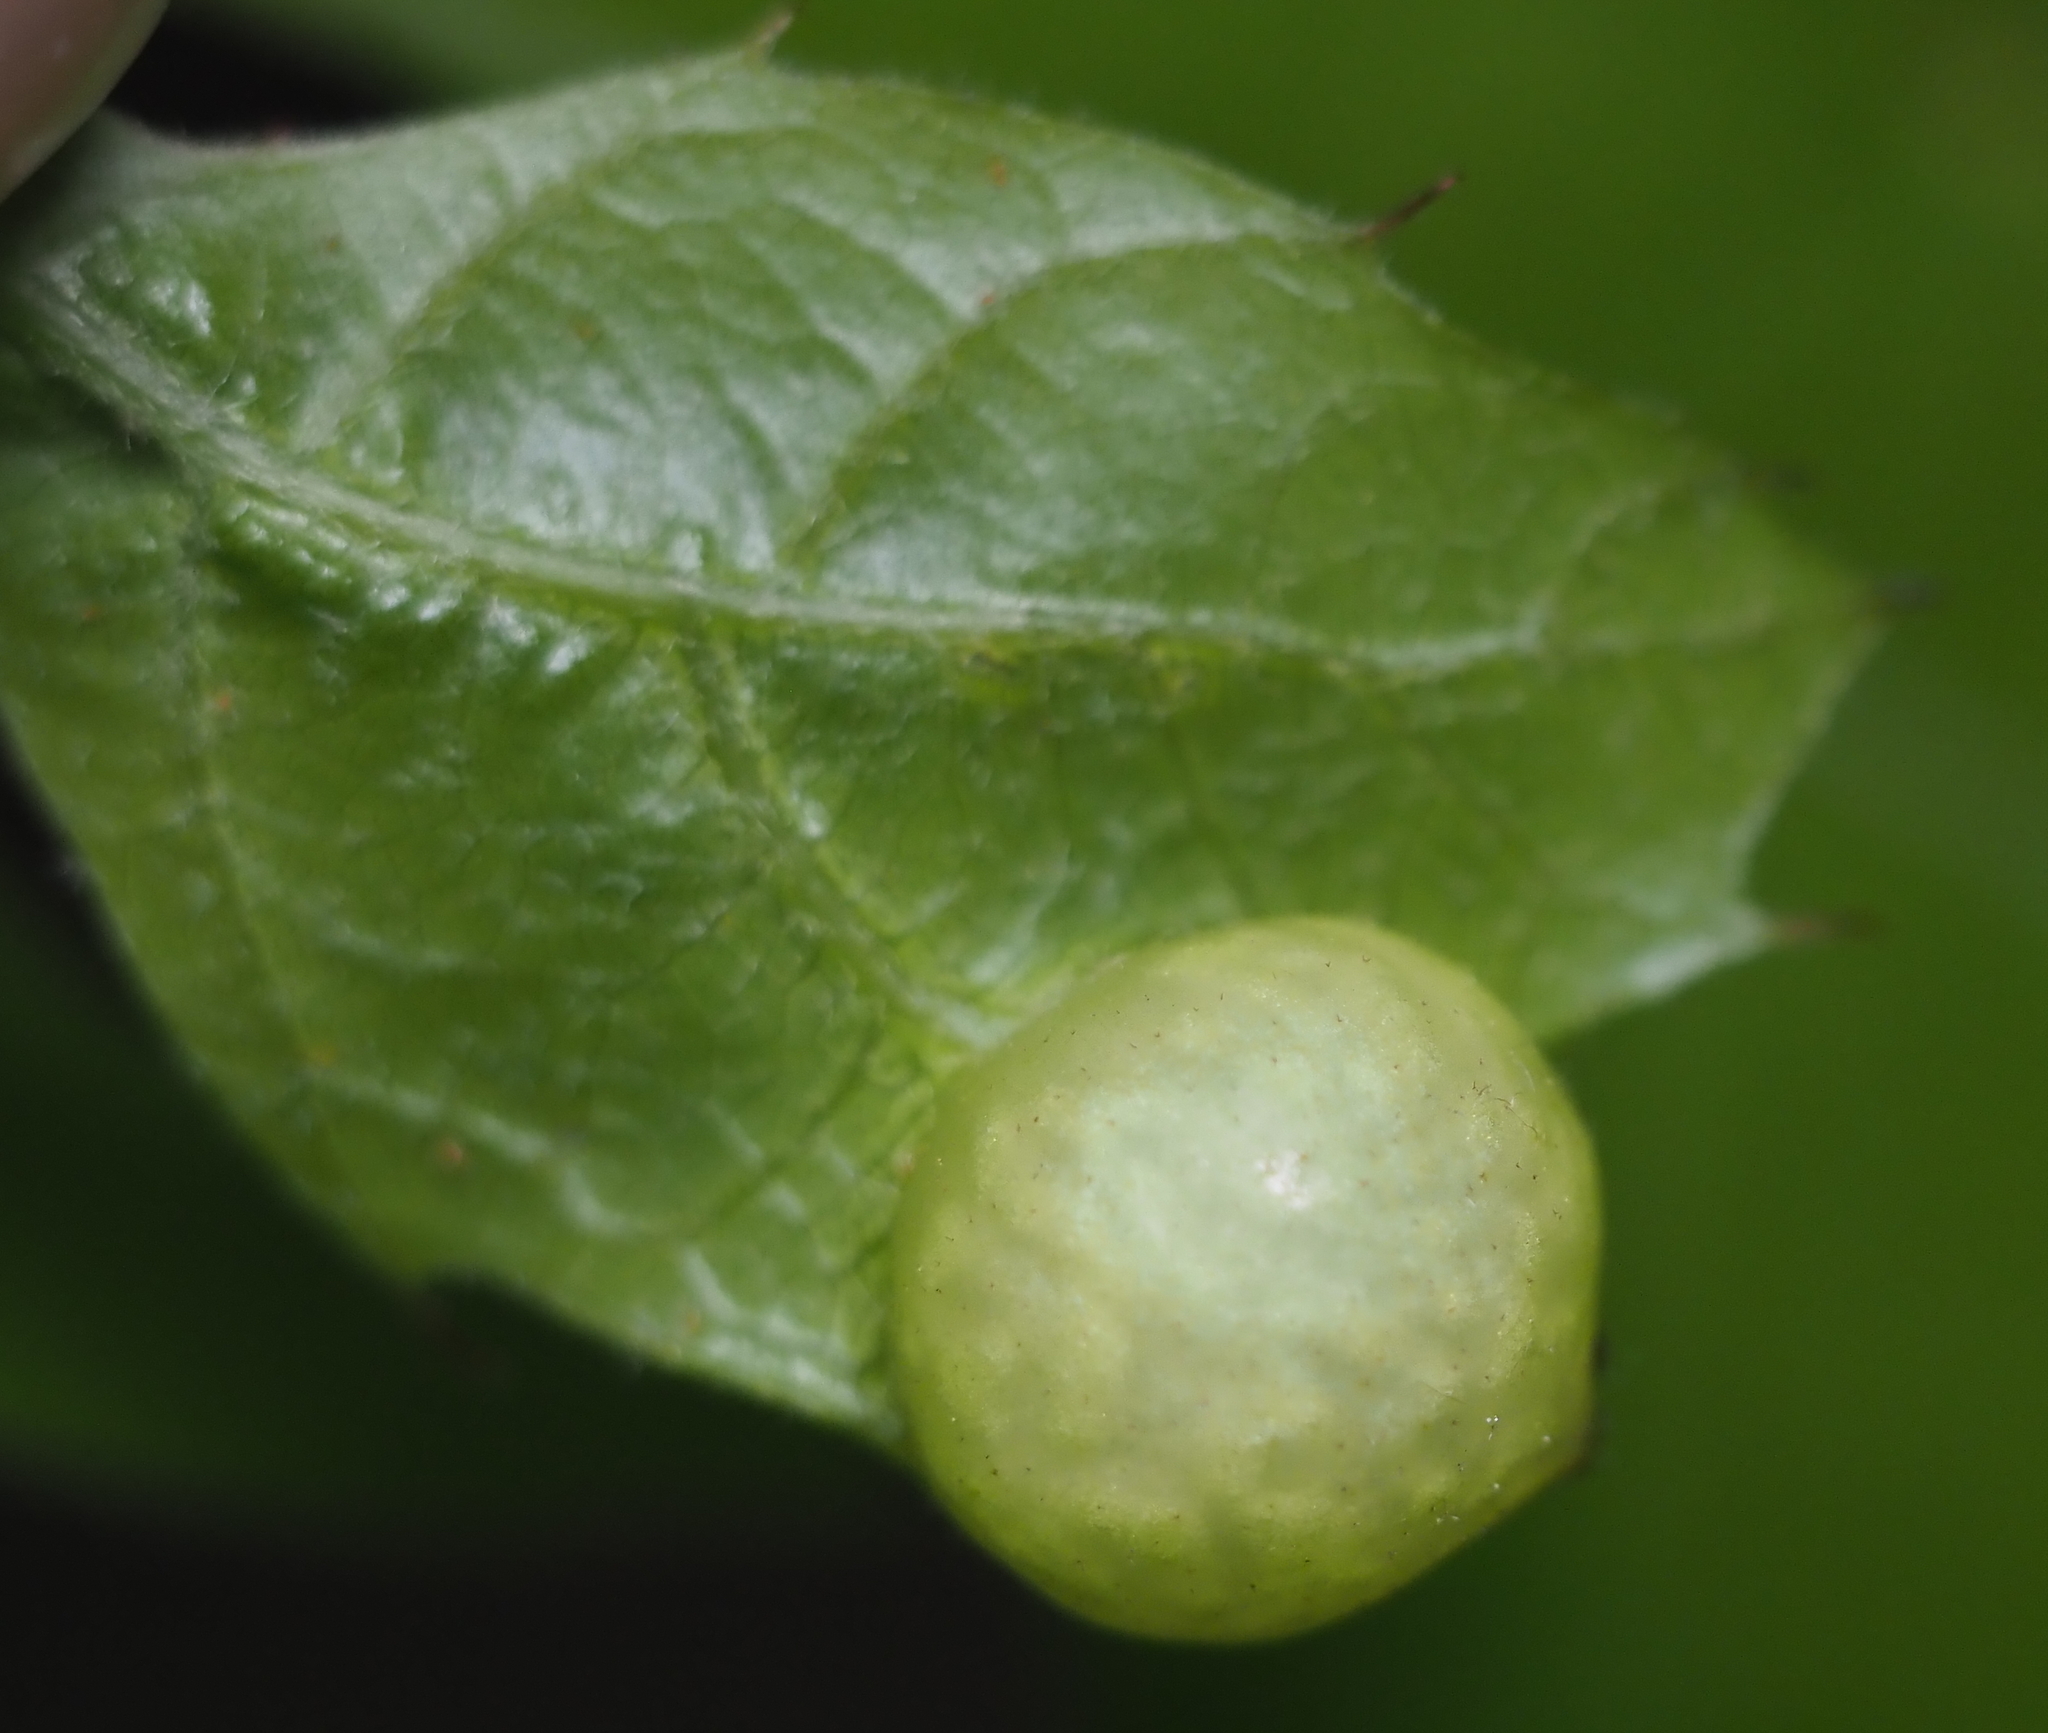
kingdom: Animalia
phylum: Arthropoda
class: Insecta
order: Hymenoptera
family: Cynipidae
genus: Amphibolips
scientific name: Amphibolips
